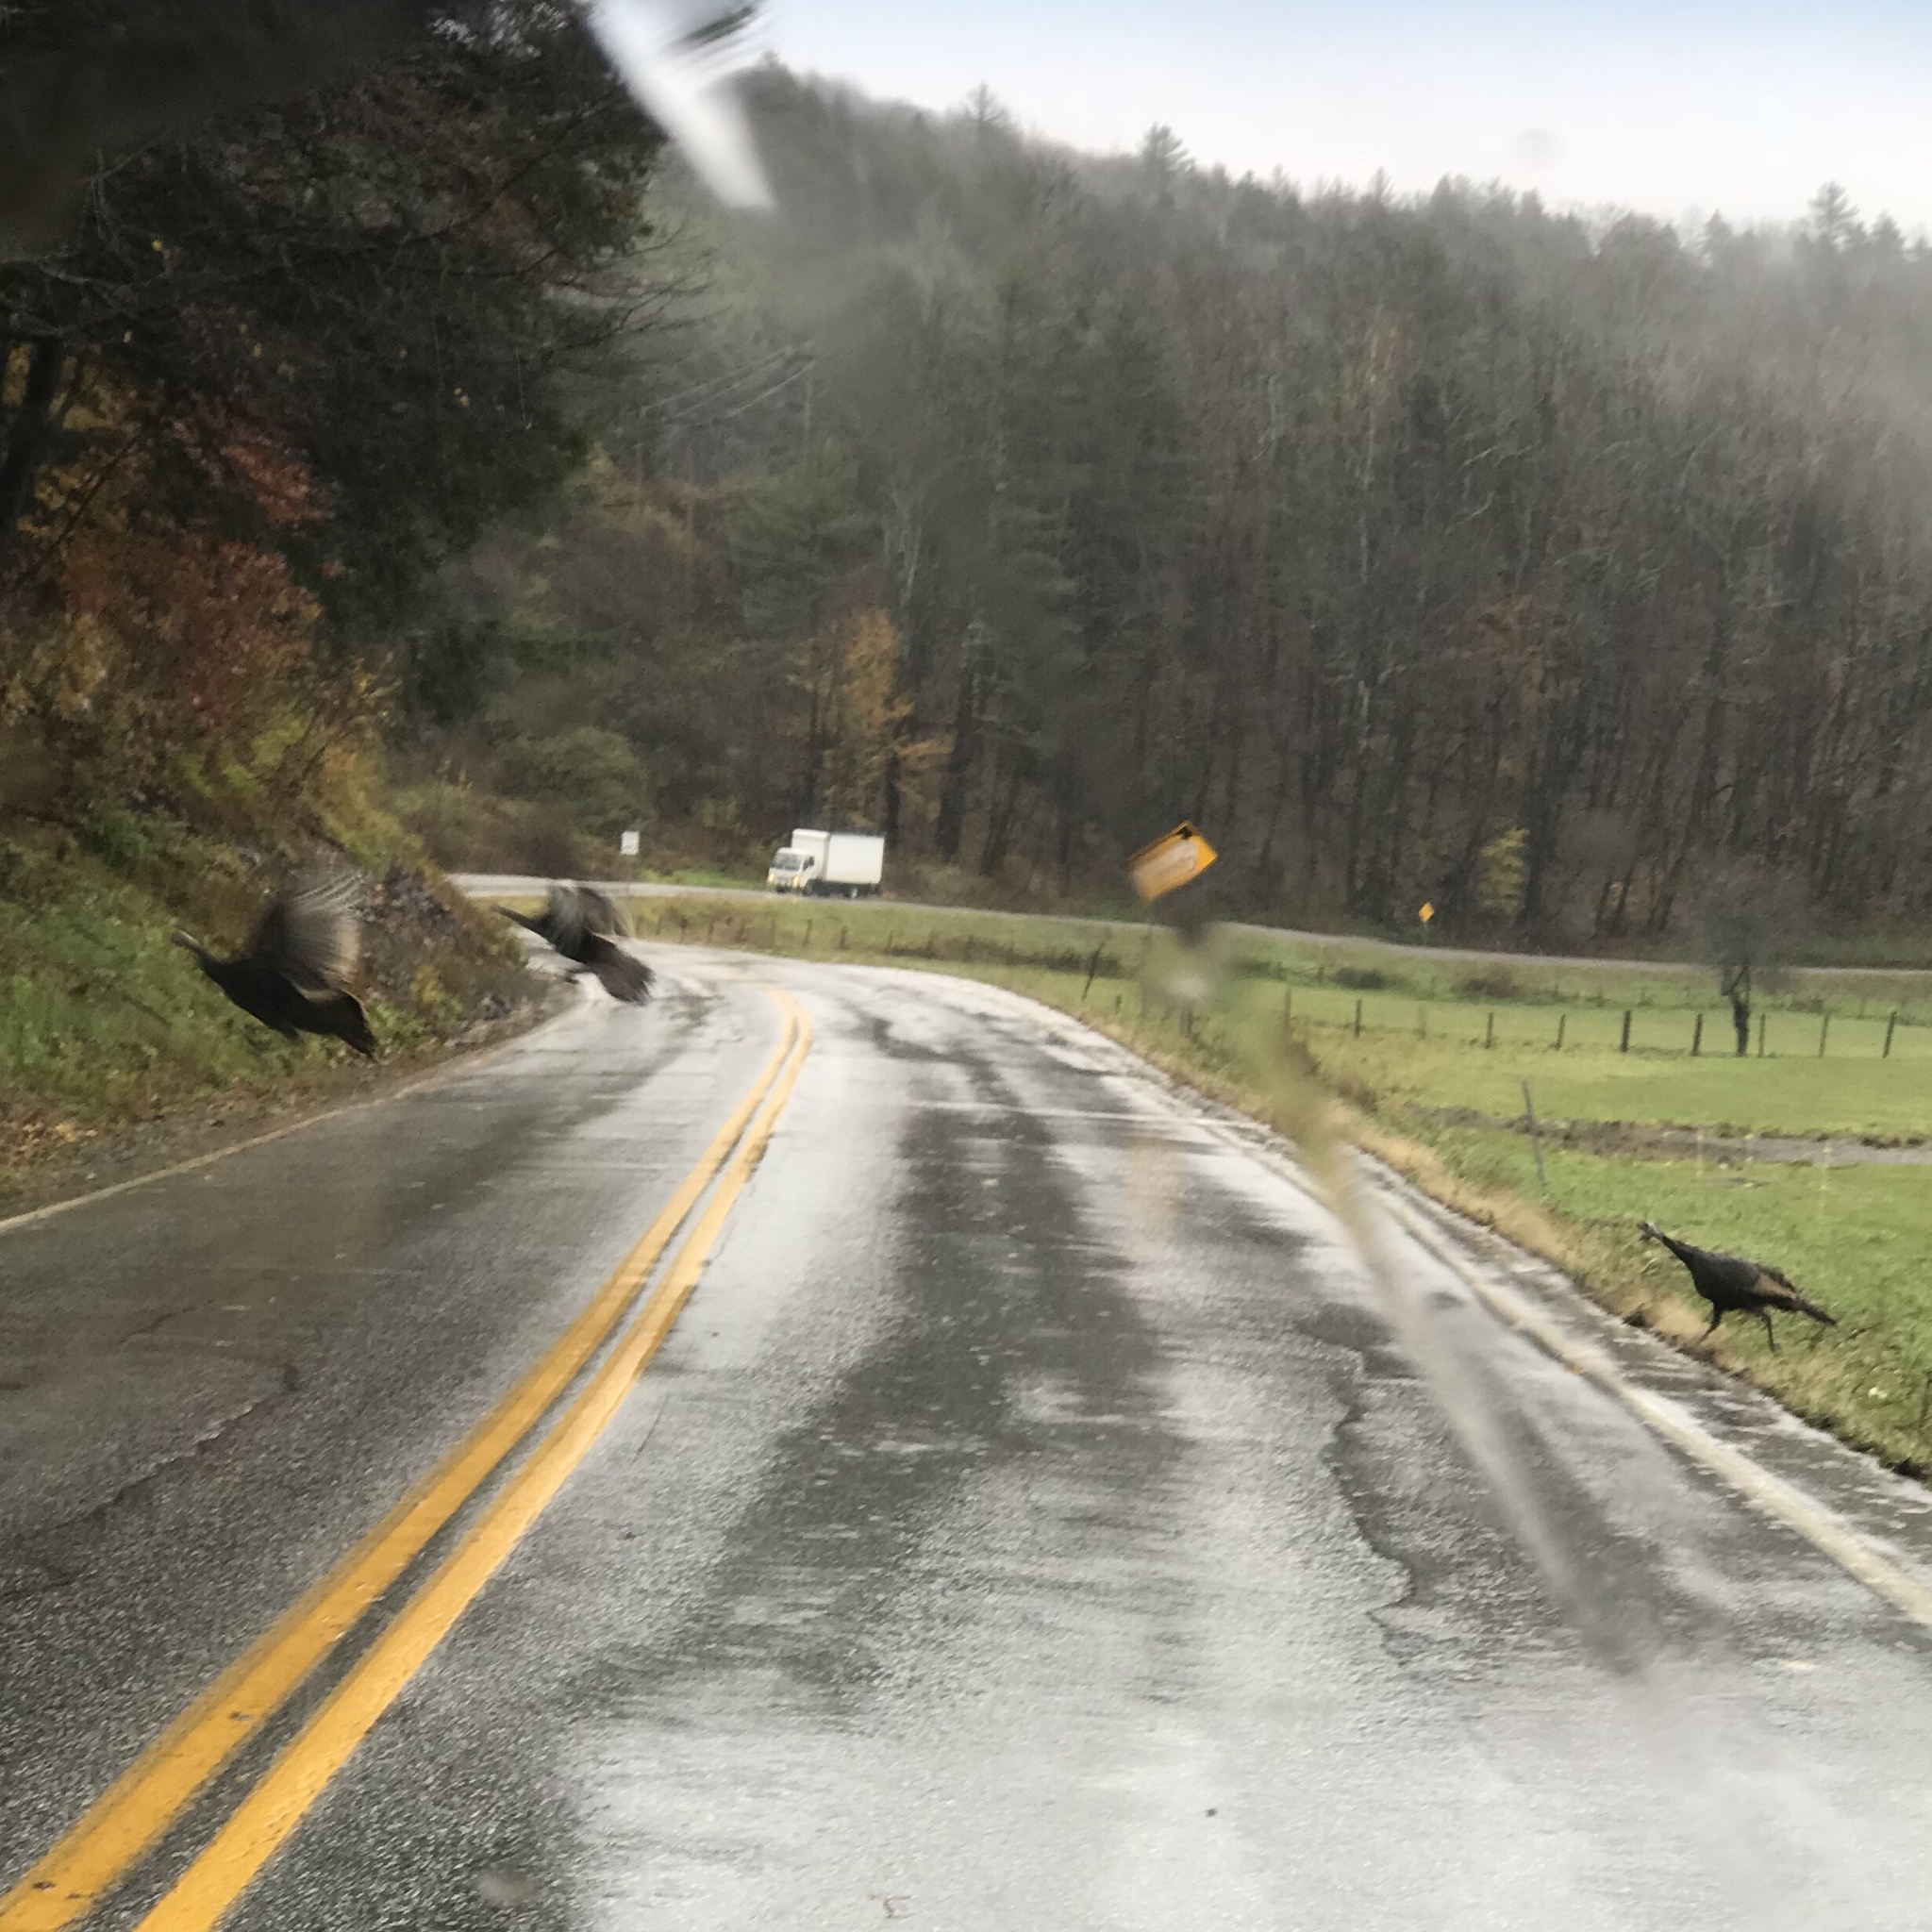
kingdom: Animalia
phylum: Chordata
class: Aves
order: Galliformes
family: Phasianidae
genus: Meleagris
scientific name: Meleagris gallopavo
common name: Wild turkey
